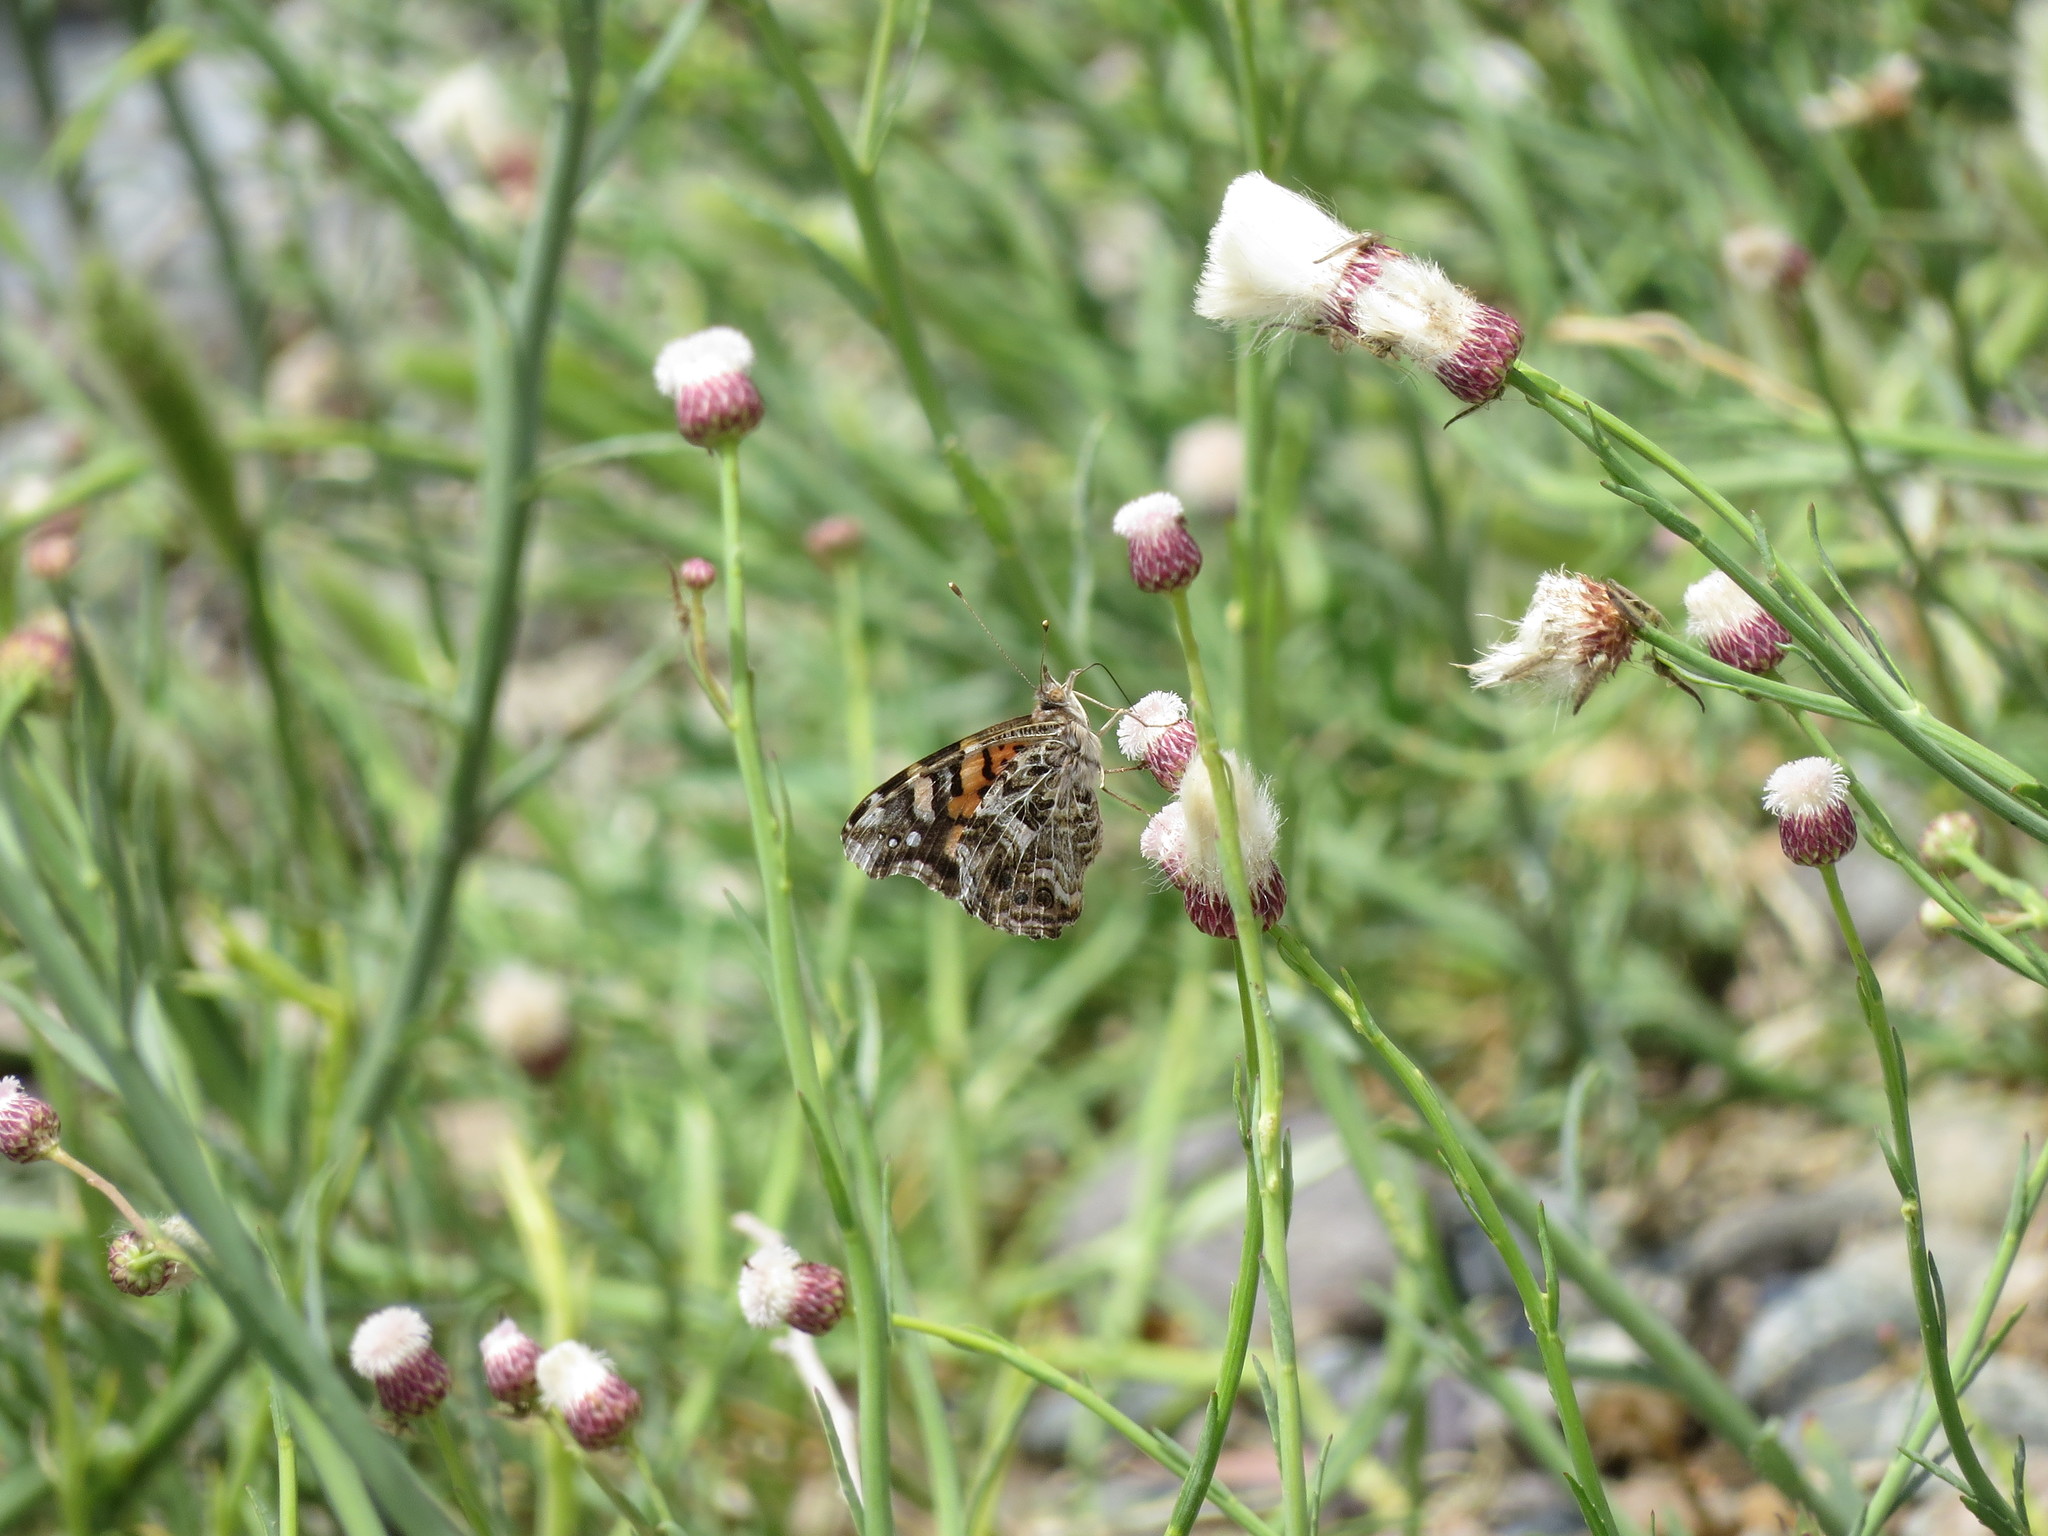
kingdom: Animalia
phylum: Arthropoda
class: Insecta
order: Lepidoptera
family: Nymphalidae
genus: Vanessa
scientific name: Vanessa carye
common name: Subtropical lady
